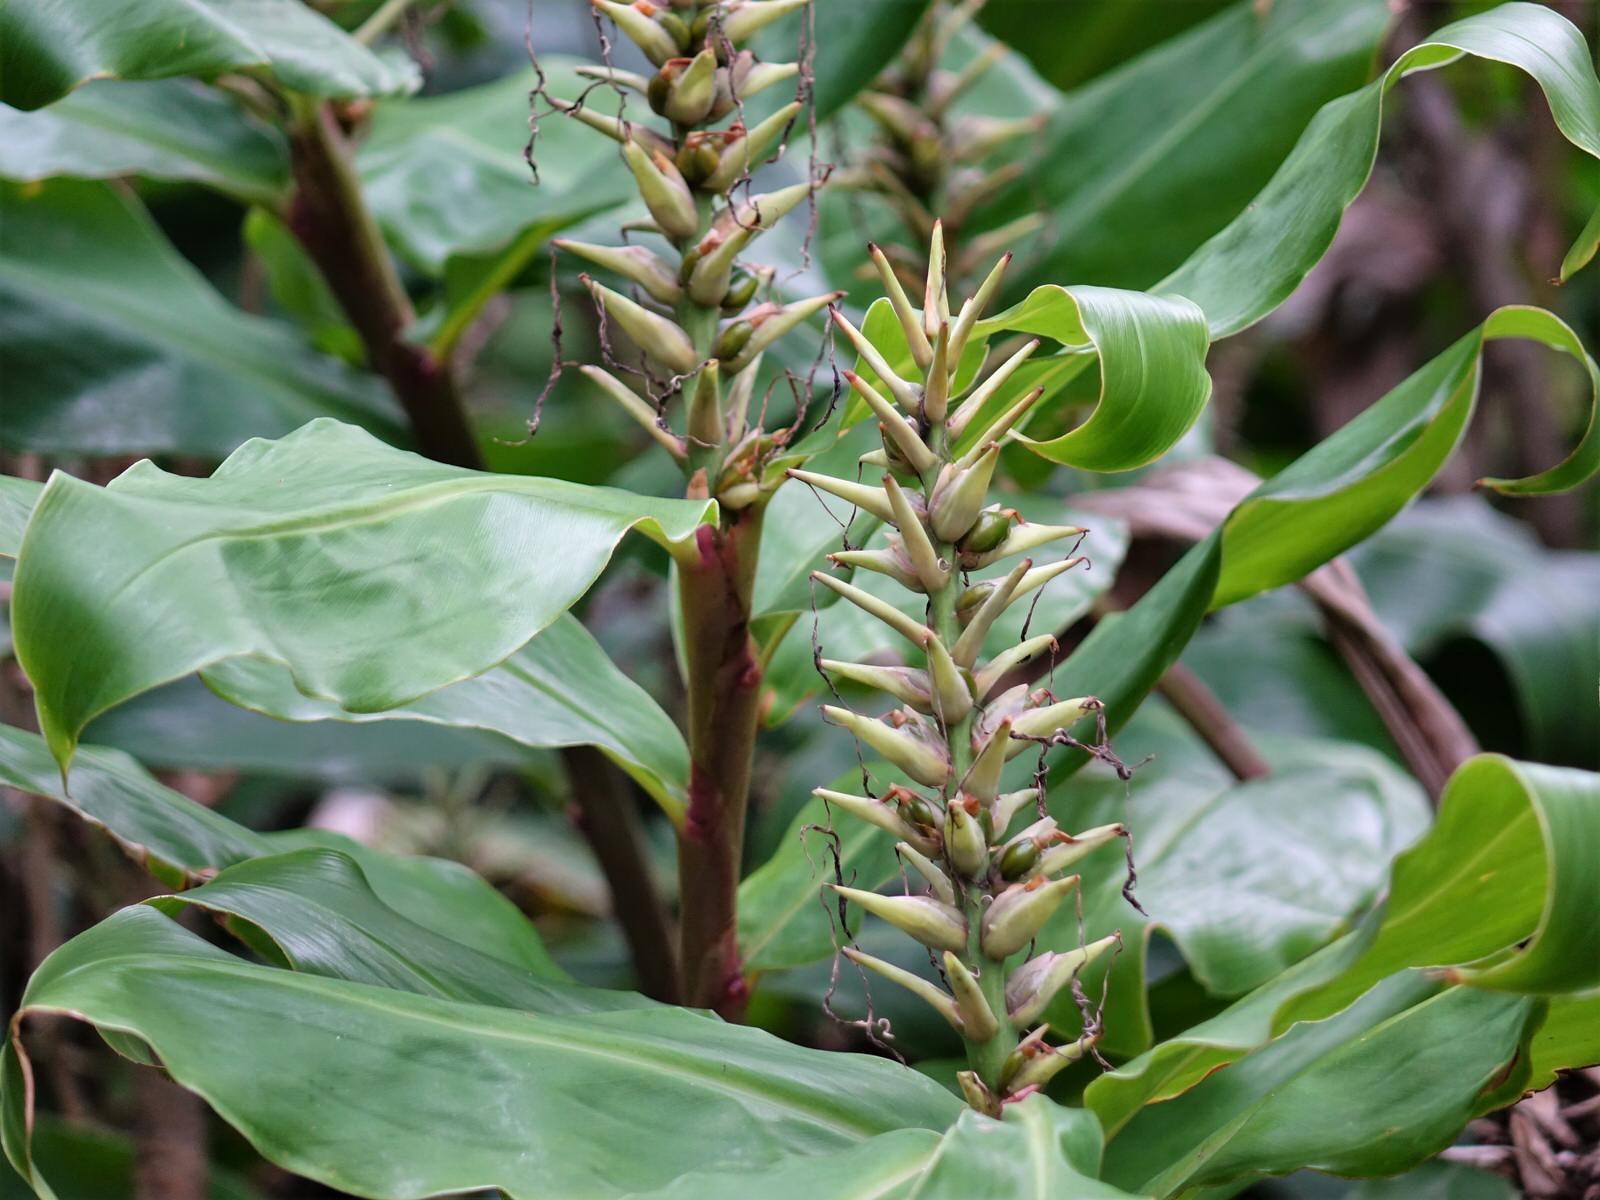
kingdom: Plantae
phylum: Tracheophyta
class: Liliopsida
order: Zingiberales
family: Zingiberaceae
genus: Hedychium
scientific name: Hedychium gardnerianum
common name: Himalayan ginger
